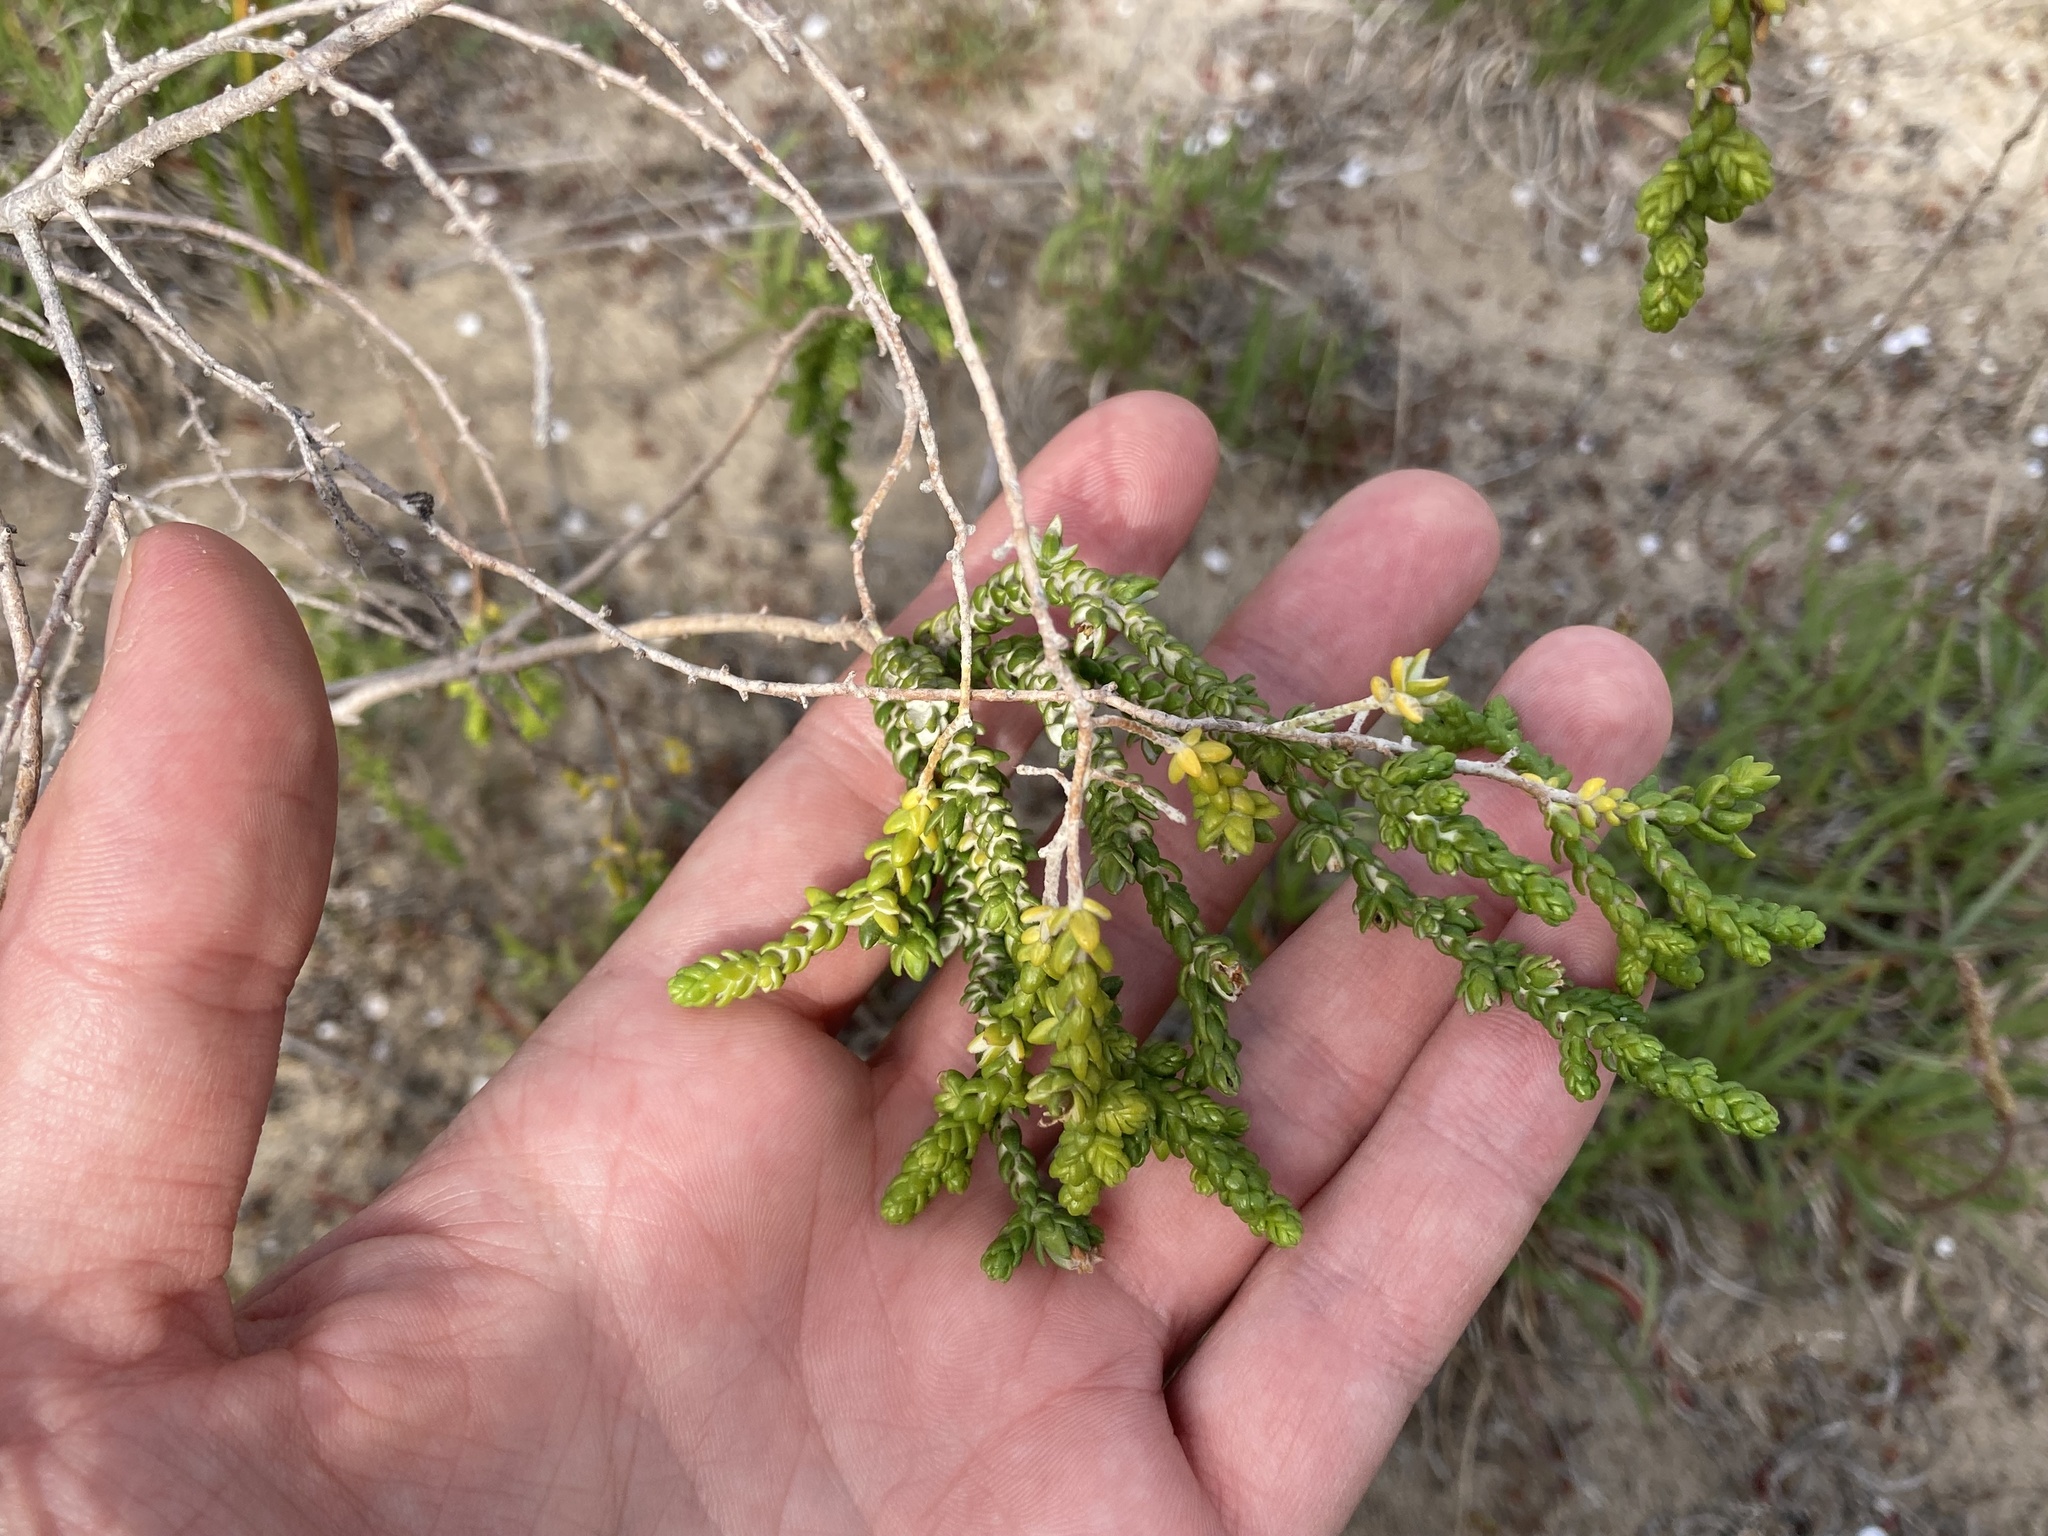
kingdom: Plantae
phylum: Tracheophyta
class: Magnoliopsida
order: Malvales
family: Thymelaeaceae
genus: Thymelaea
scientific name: Thymelaea hirsuta
